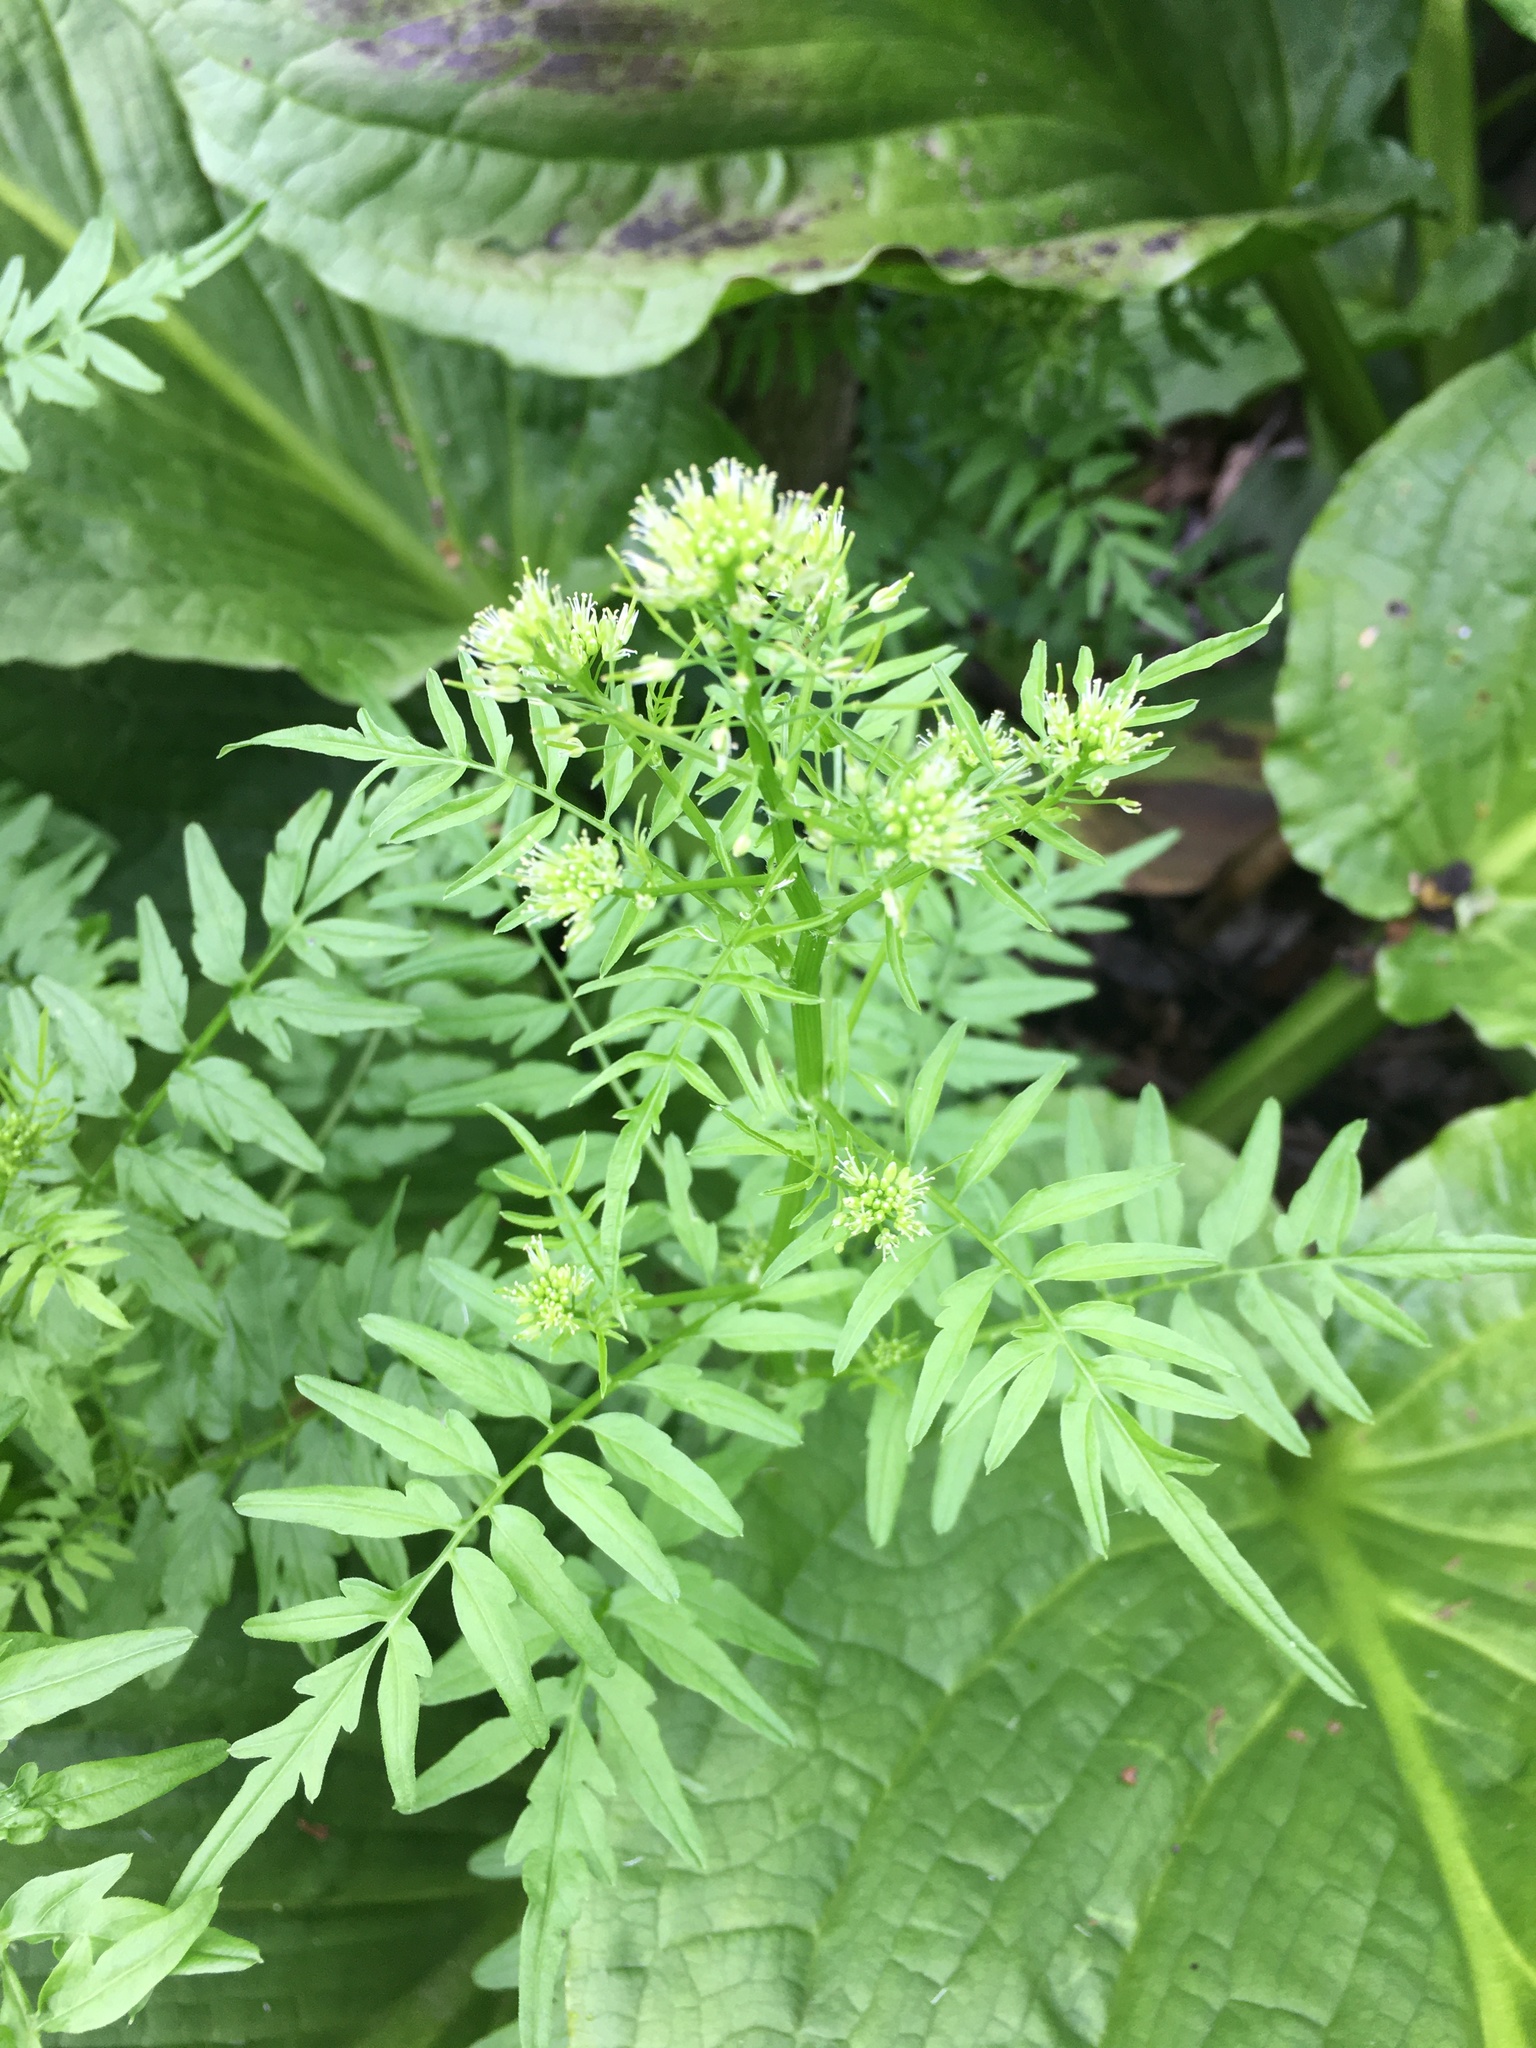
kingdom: Plantae
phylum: Tracheophyta
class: Magnoliopsida
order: Brassicales
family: Brassicaceae
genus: Cardamine
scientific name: Cardamine impatiens
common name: Narrow-leaved bitter-cress
